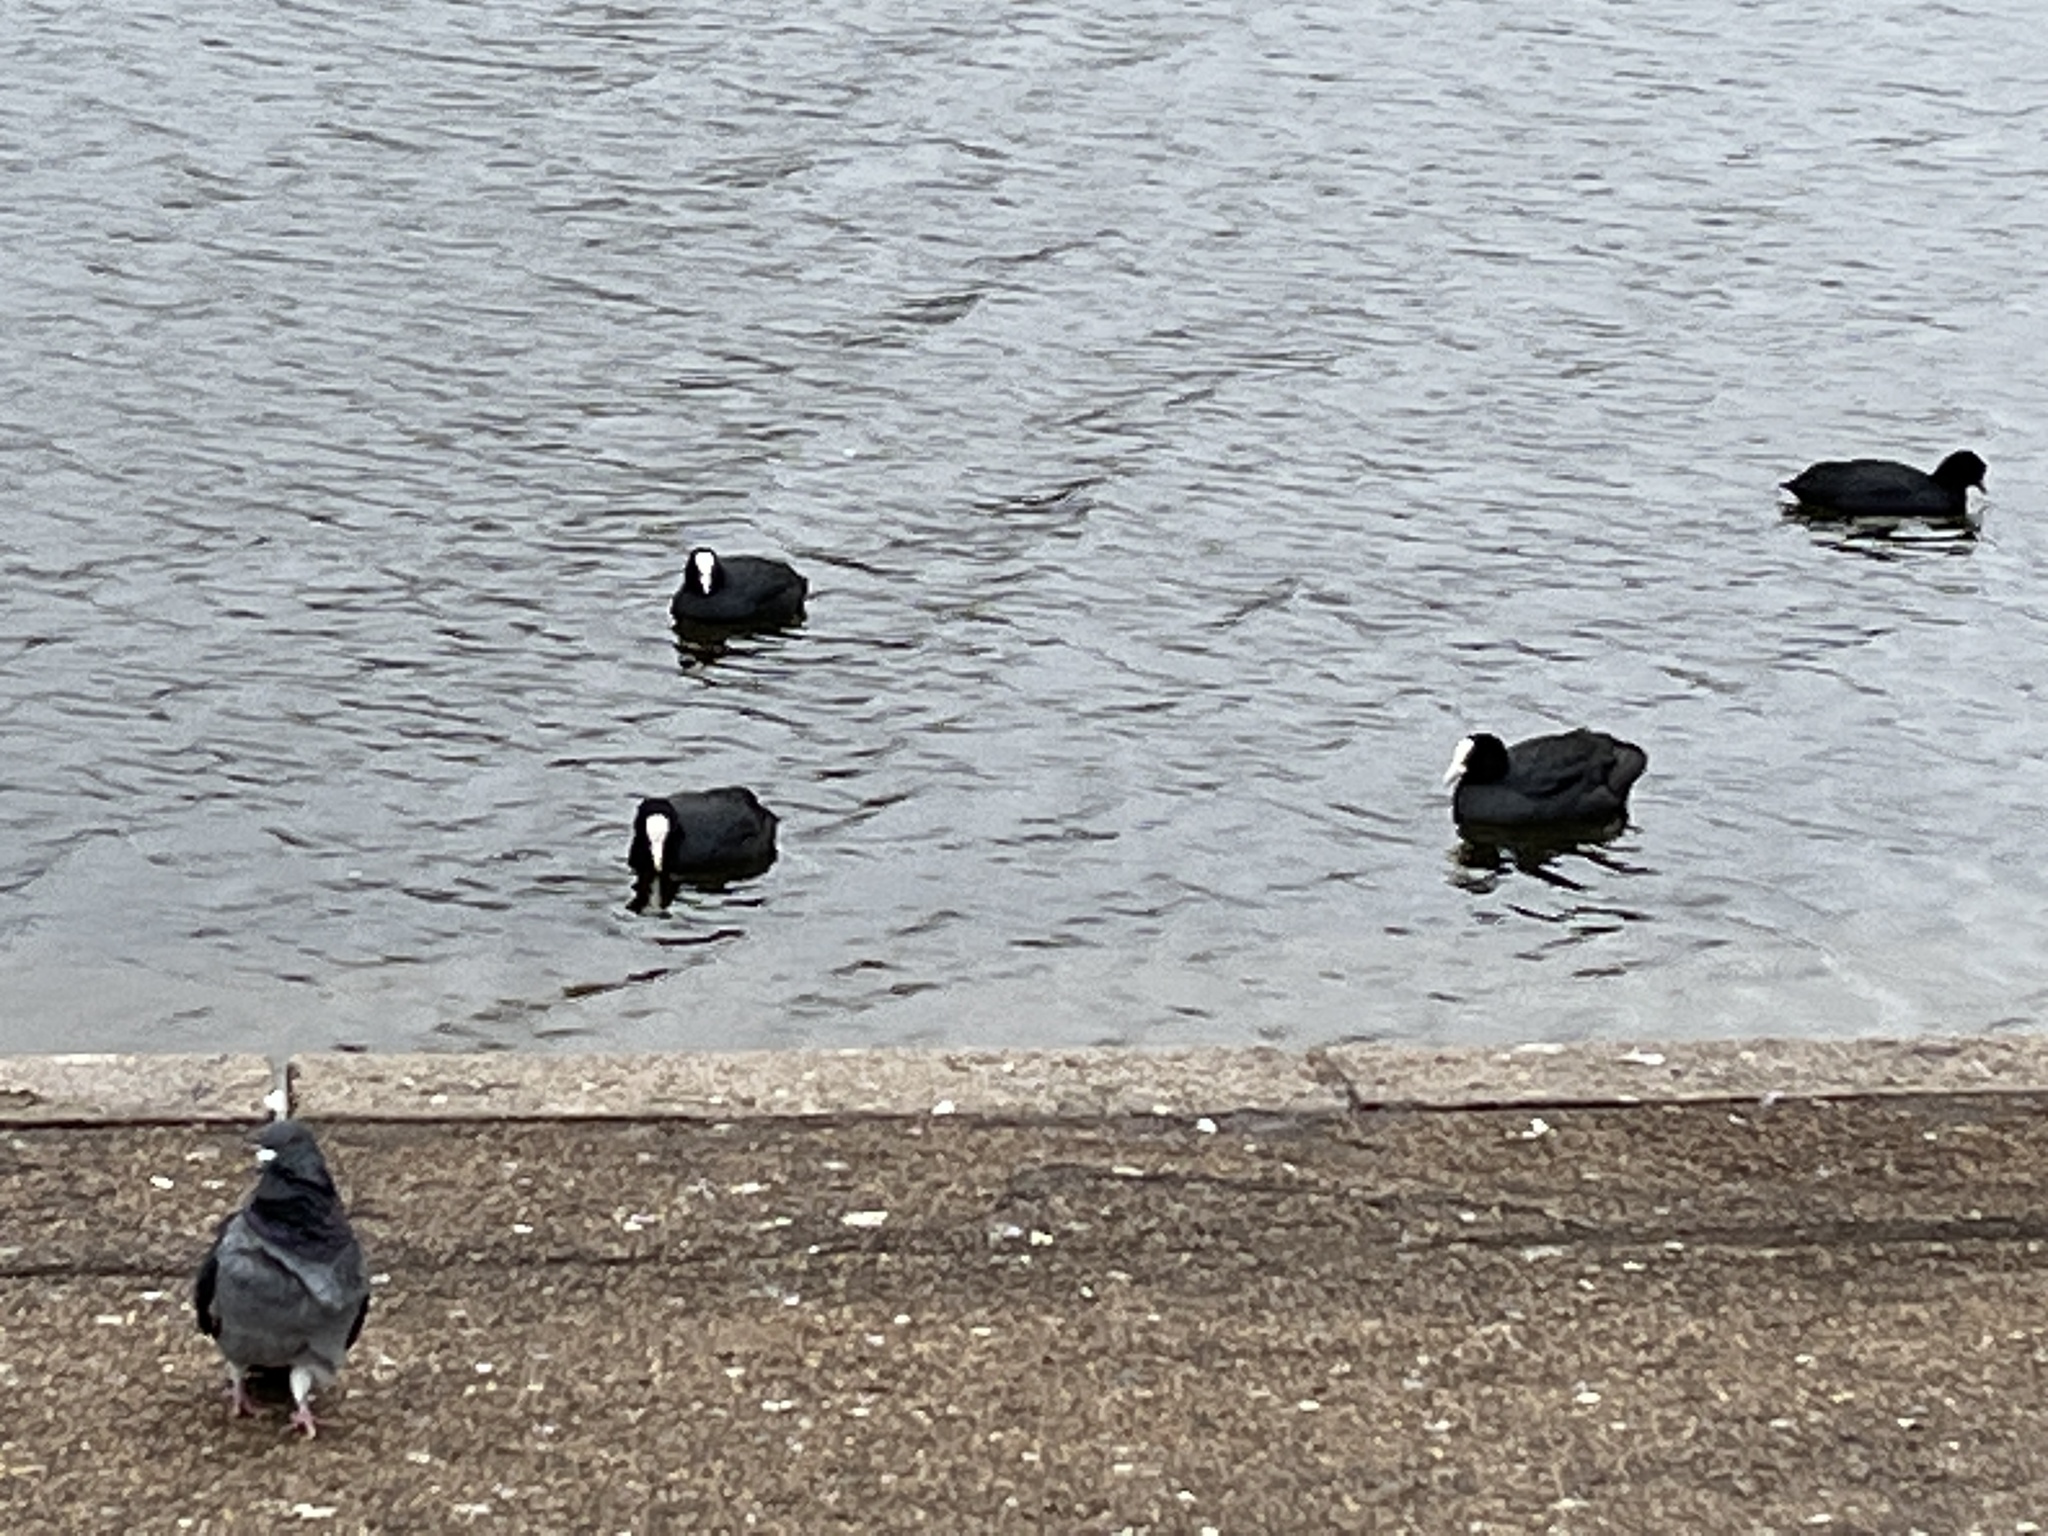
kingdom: Animalia
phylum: Chordata
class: Aves
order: Gruiformes
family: Rallidae
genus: Fulica
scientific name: Fulica atra
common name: Eurasian coot
